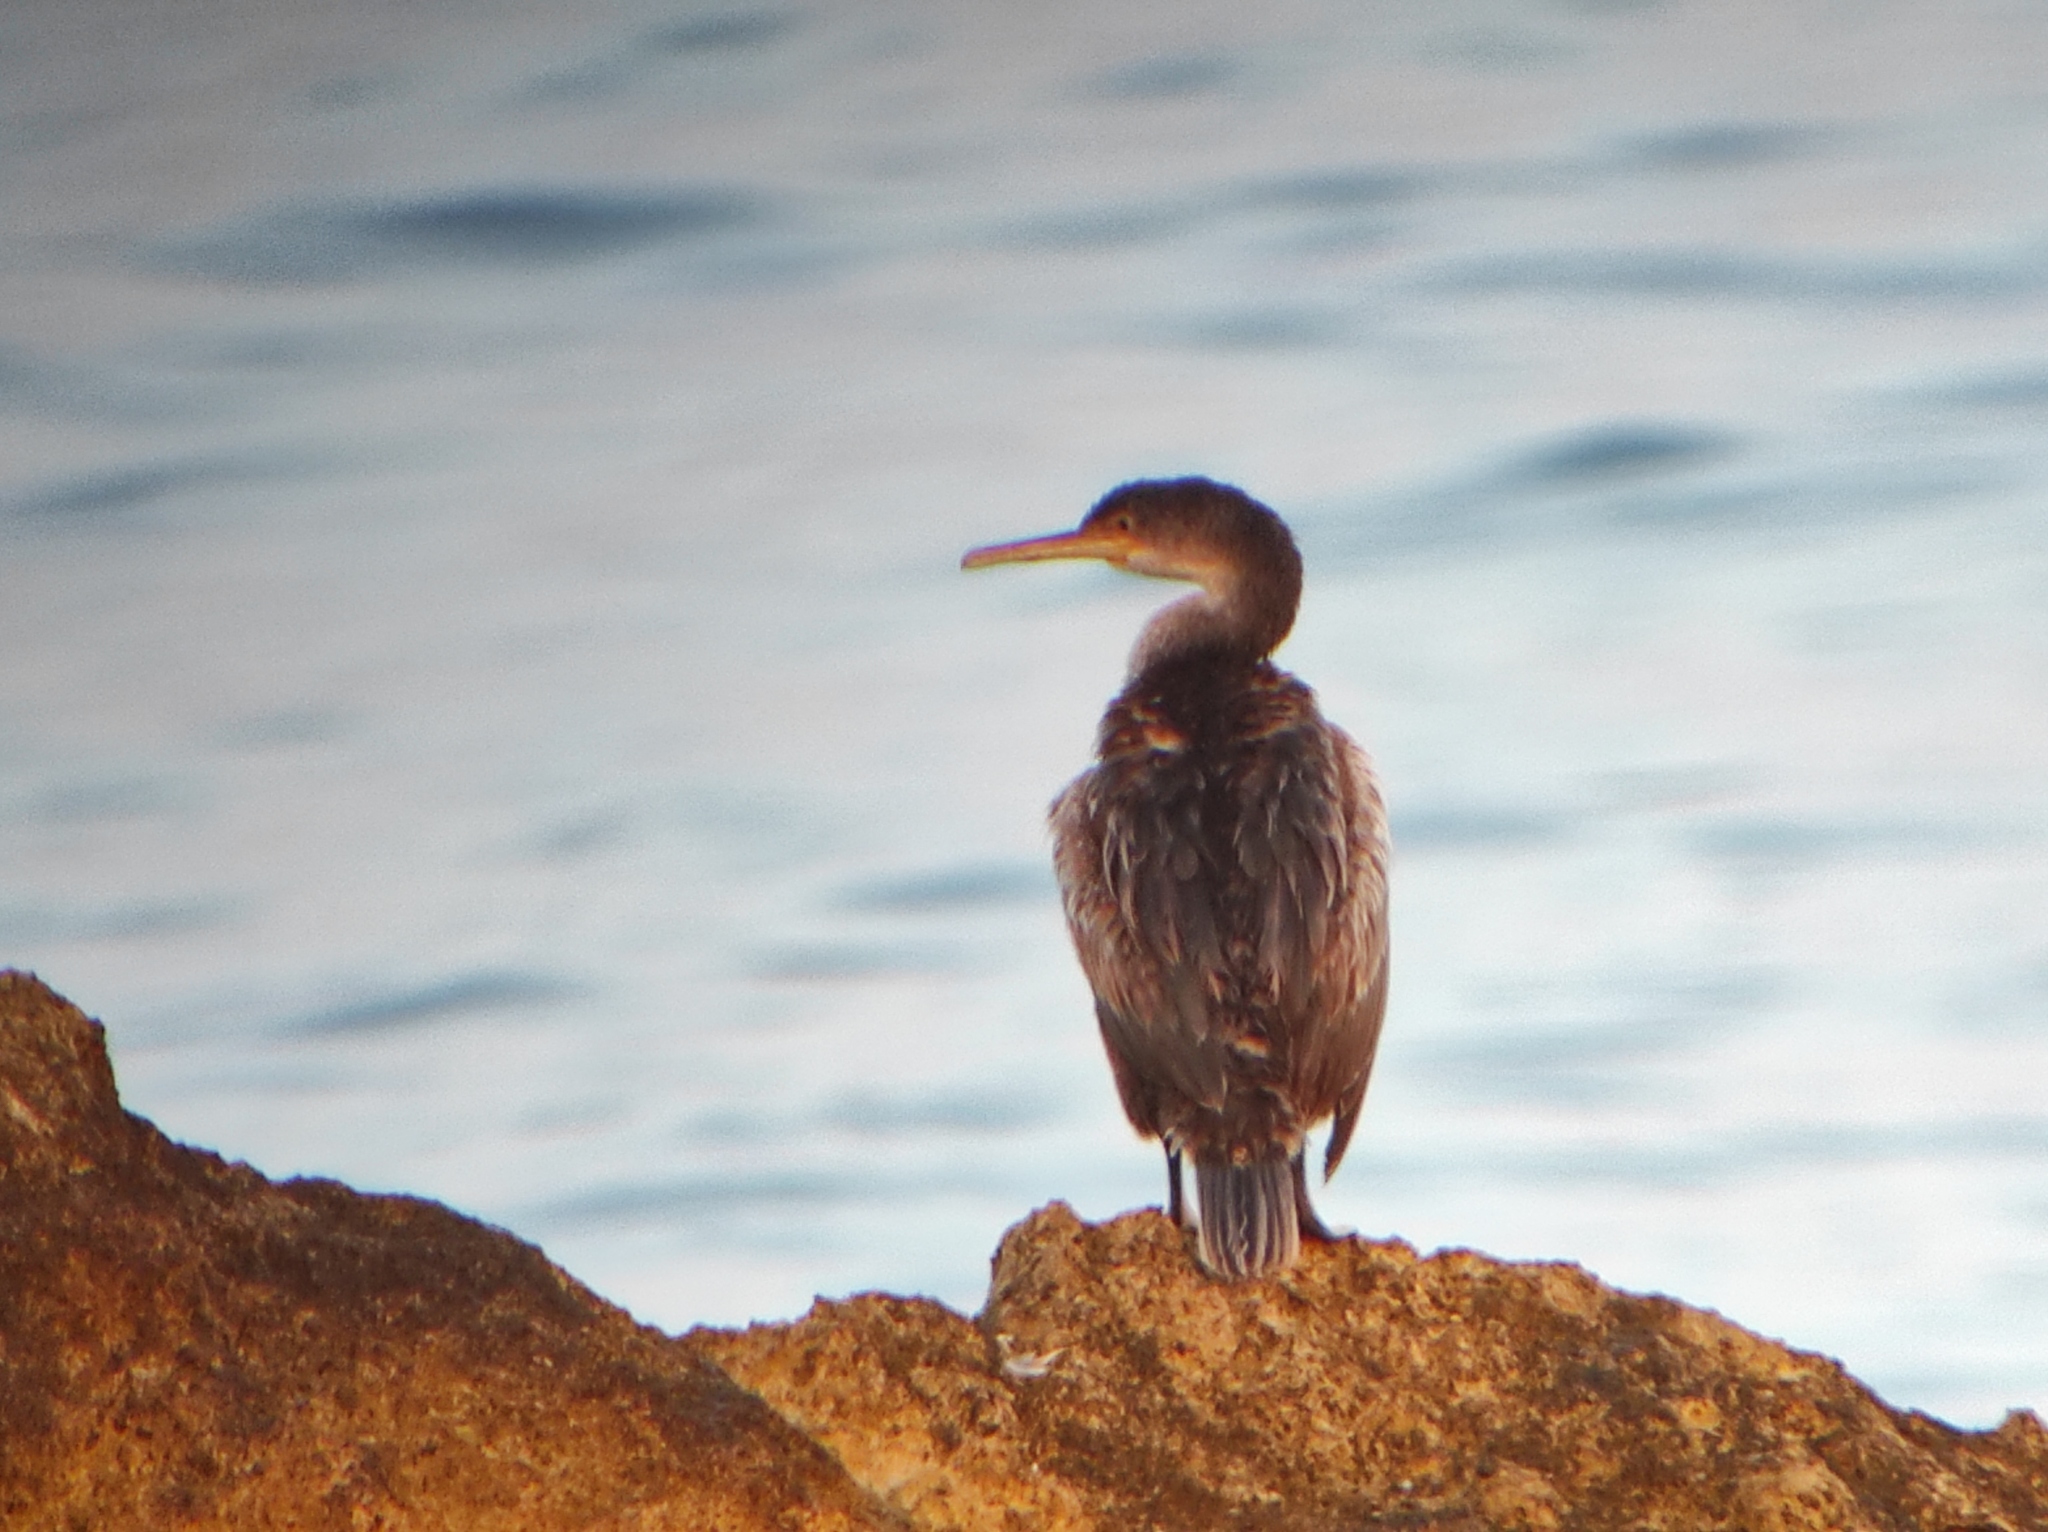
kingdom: Animalia
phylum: Chordata
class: Aves
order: Suliformes
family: Phalacrocoracidae
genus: Phalacrocorax
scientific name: Phalacrocorax aristotelis
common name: European shag
